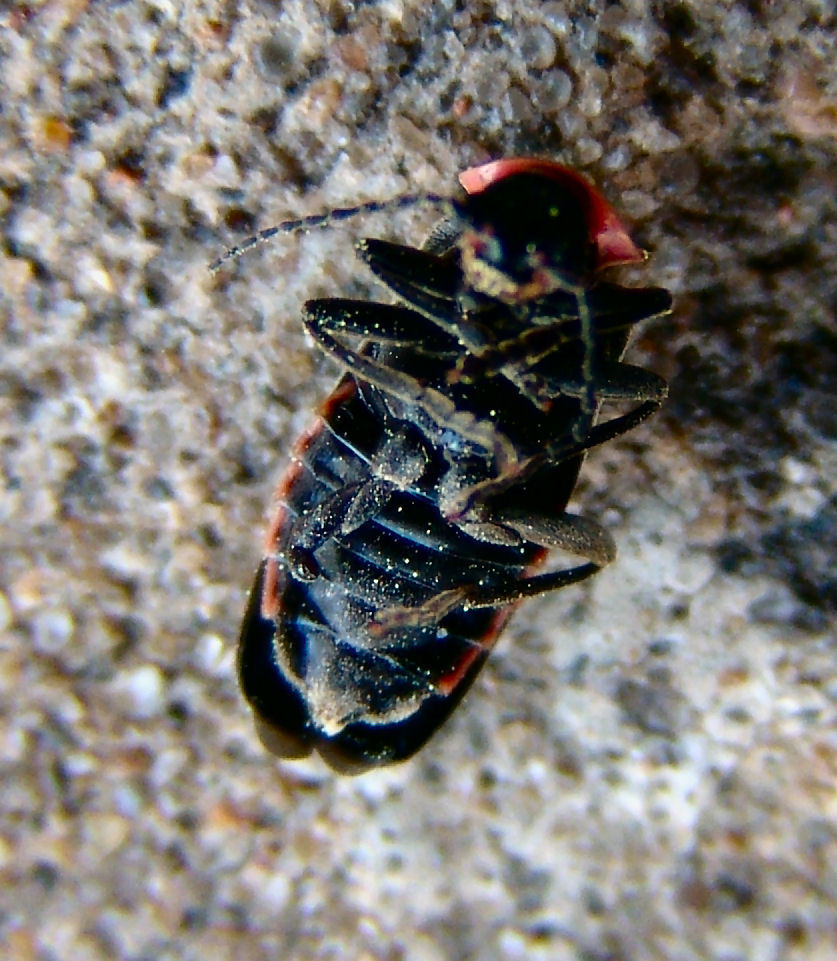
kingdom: Animalia
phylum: Arthropoda
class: Insecta
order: Coleoptera
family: Cantharidae
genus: Atalantycha
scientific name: Atalantycha neglecta
